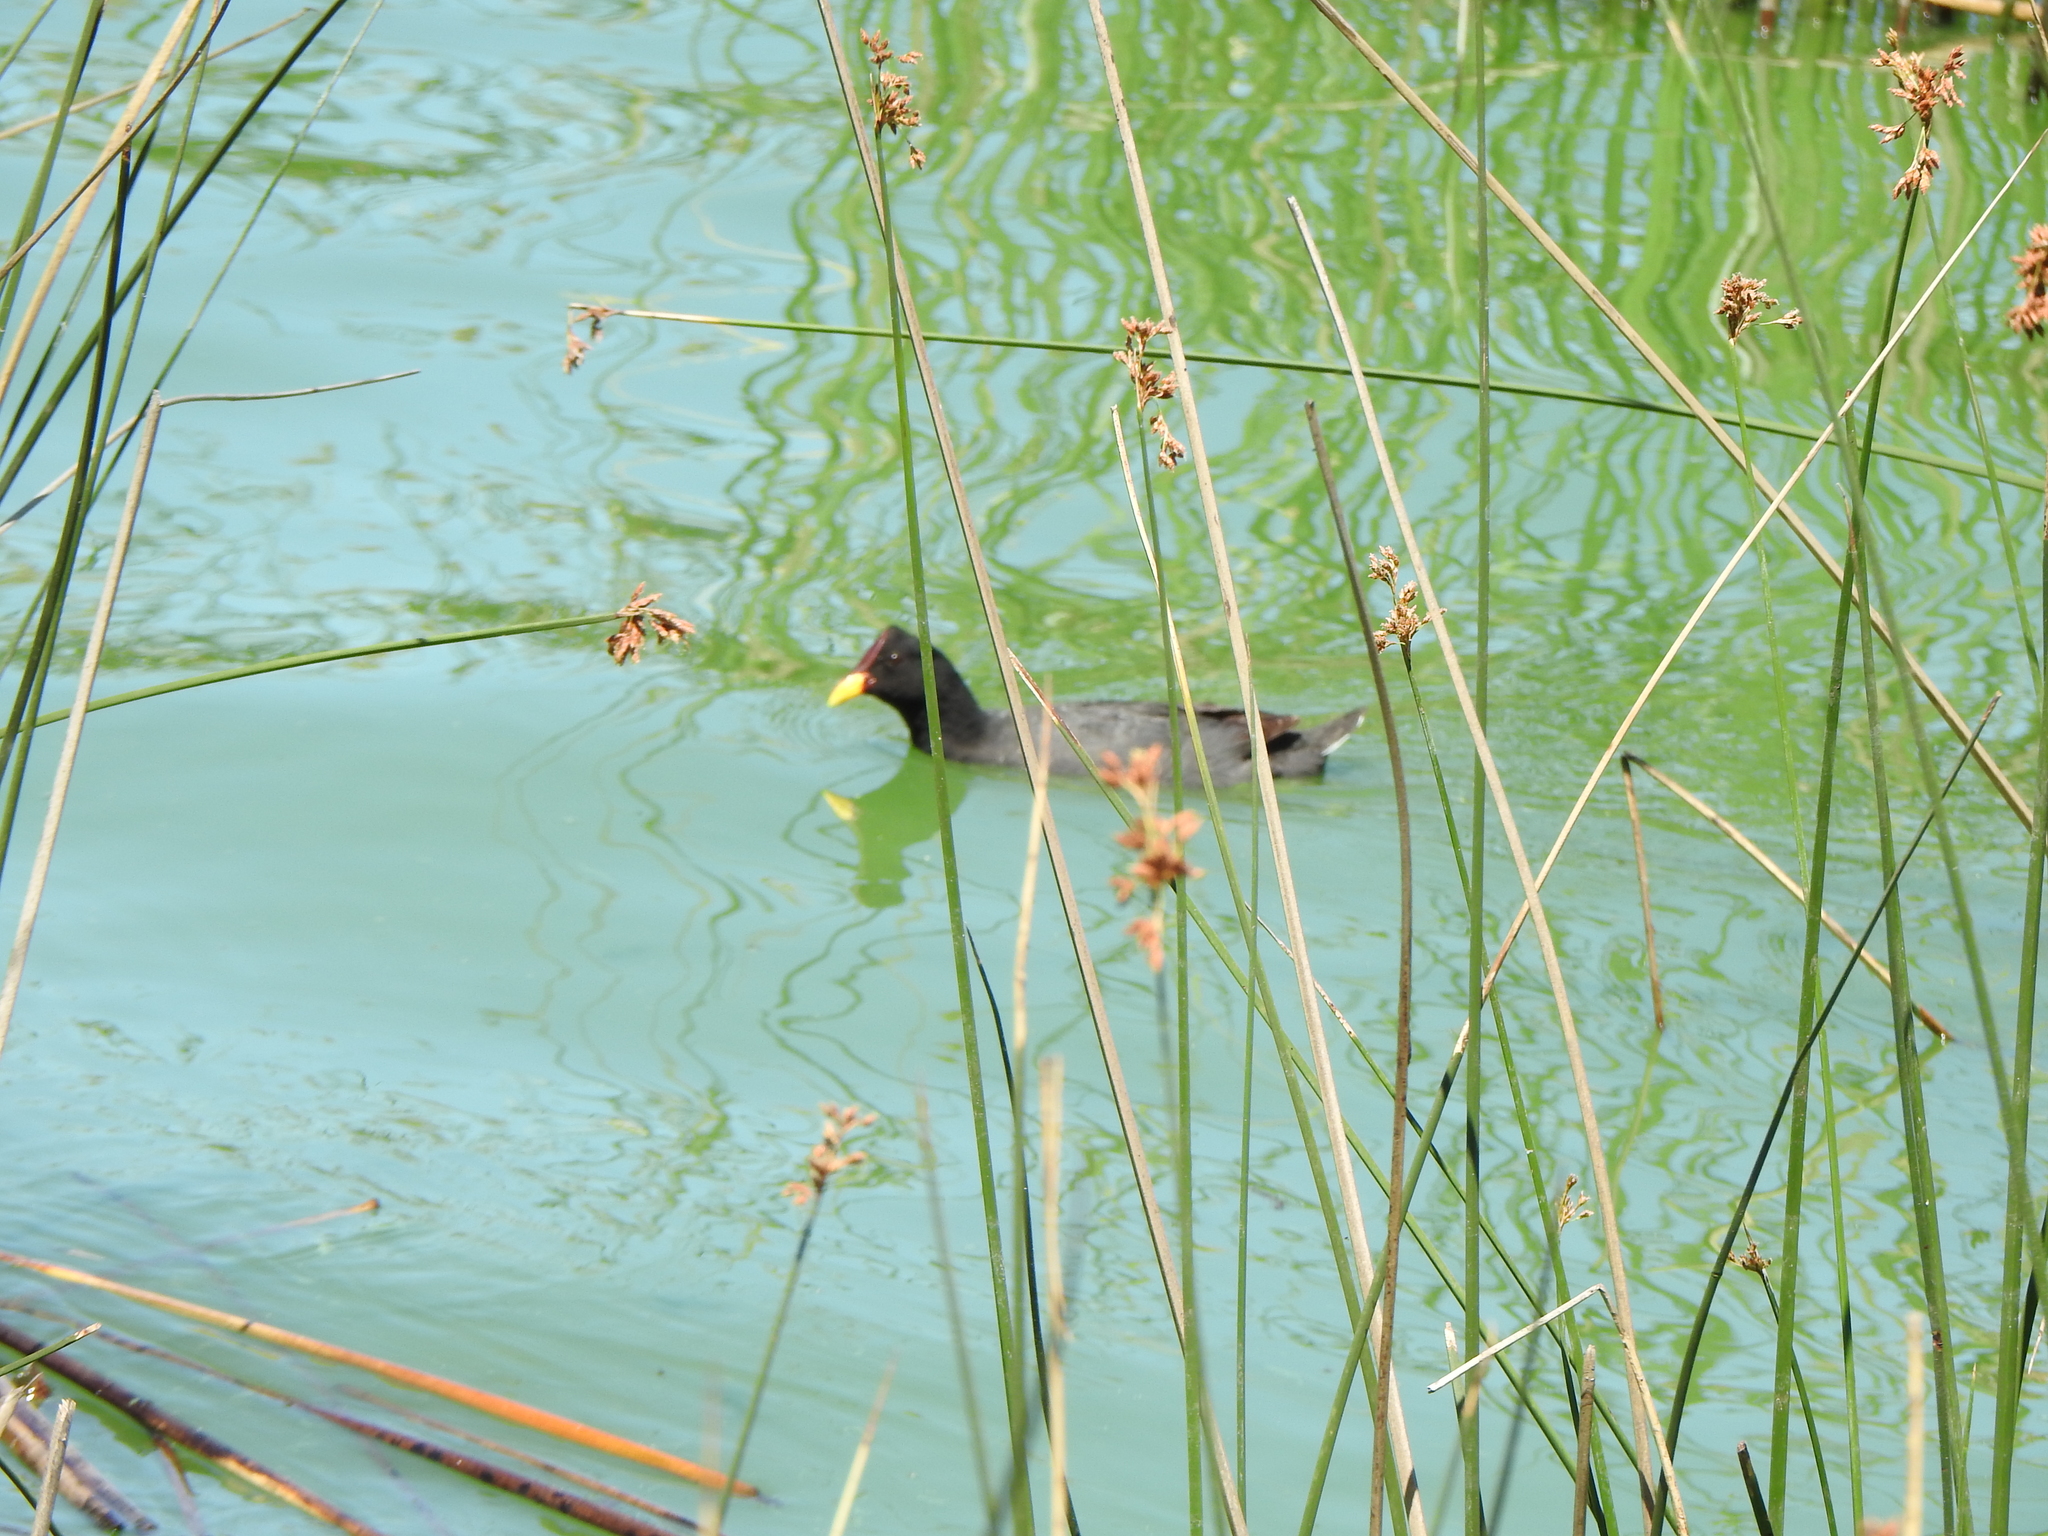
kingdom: Animalia
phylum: Chordata
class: Aves
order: Gruiformes
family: Rallidae
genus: Fulica
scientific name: Fulica rufifrons
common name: Red-fronted coot
